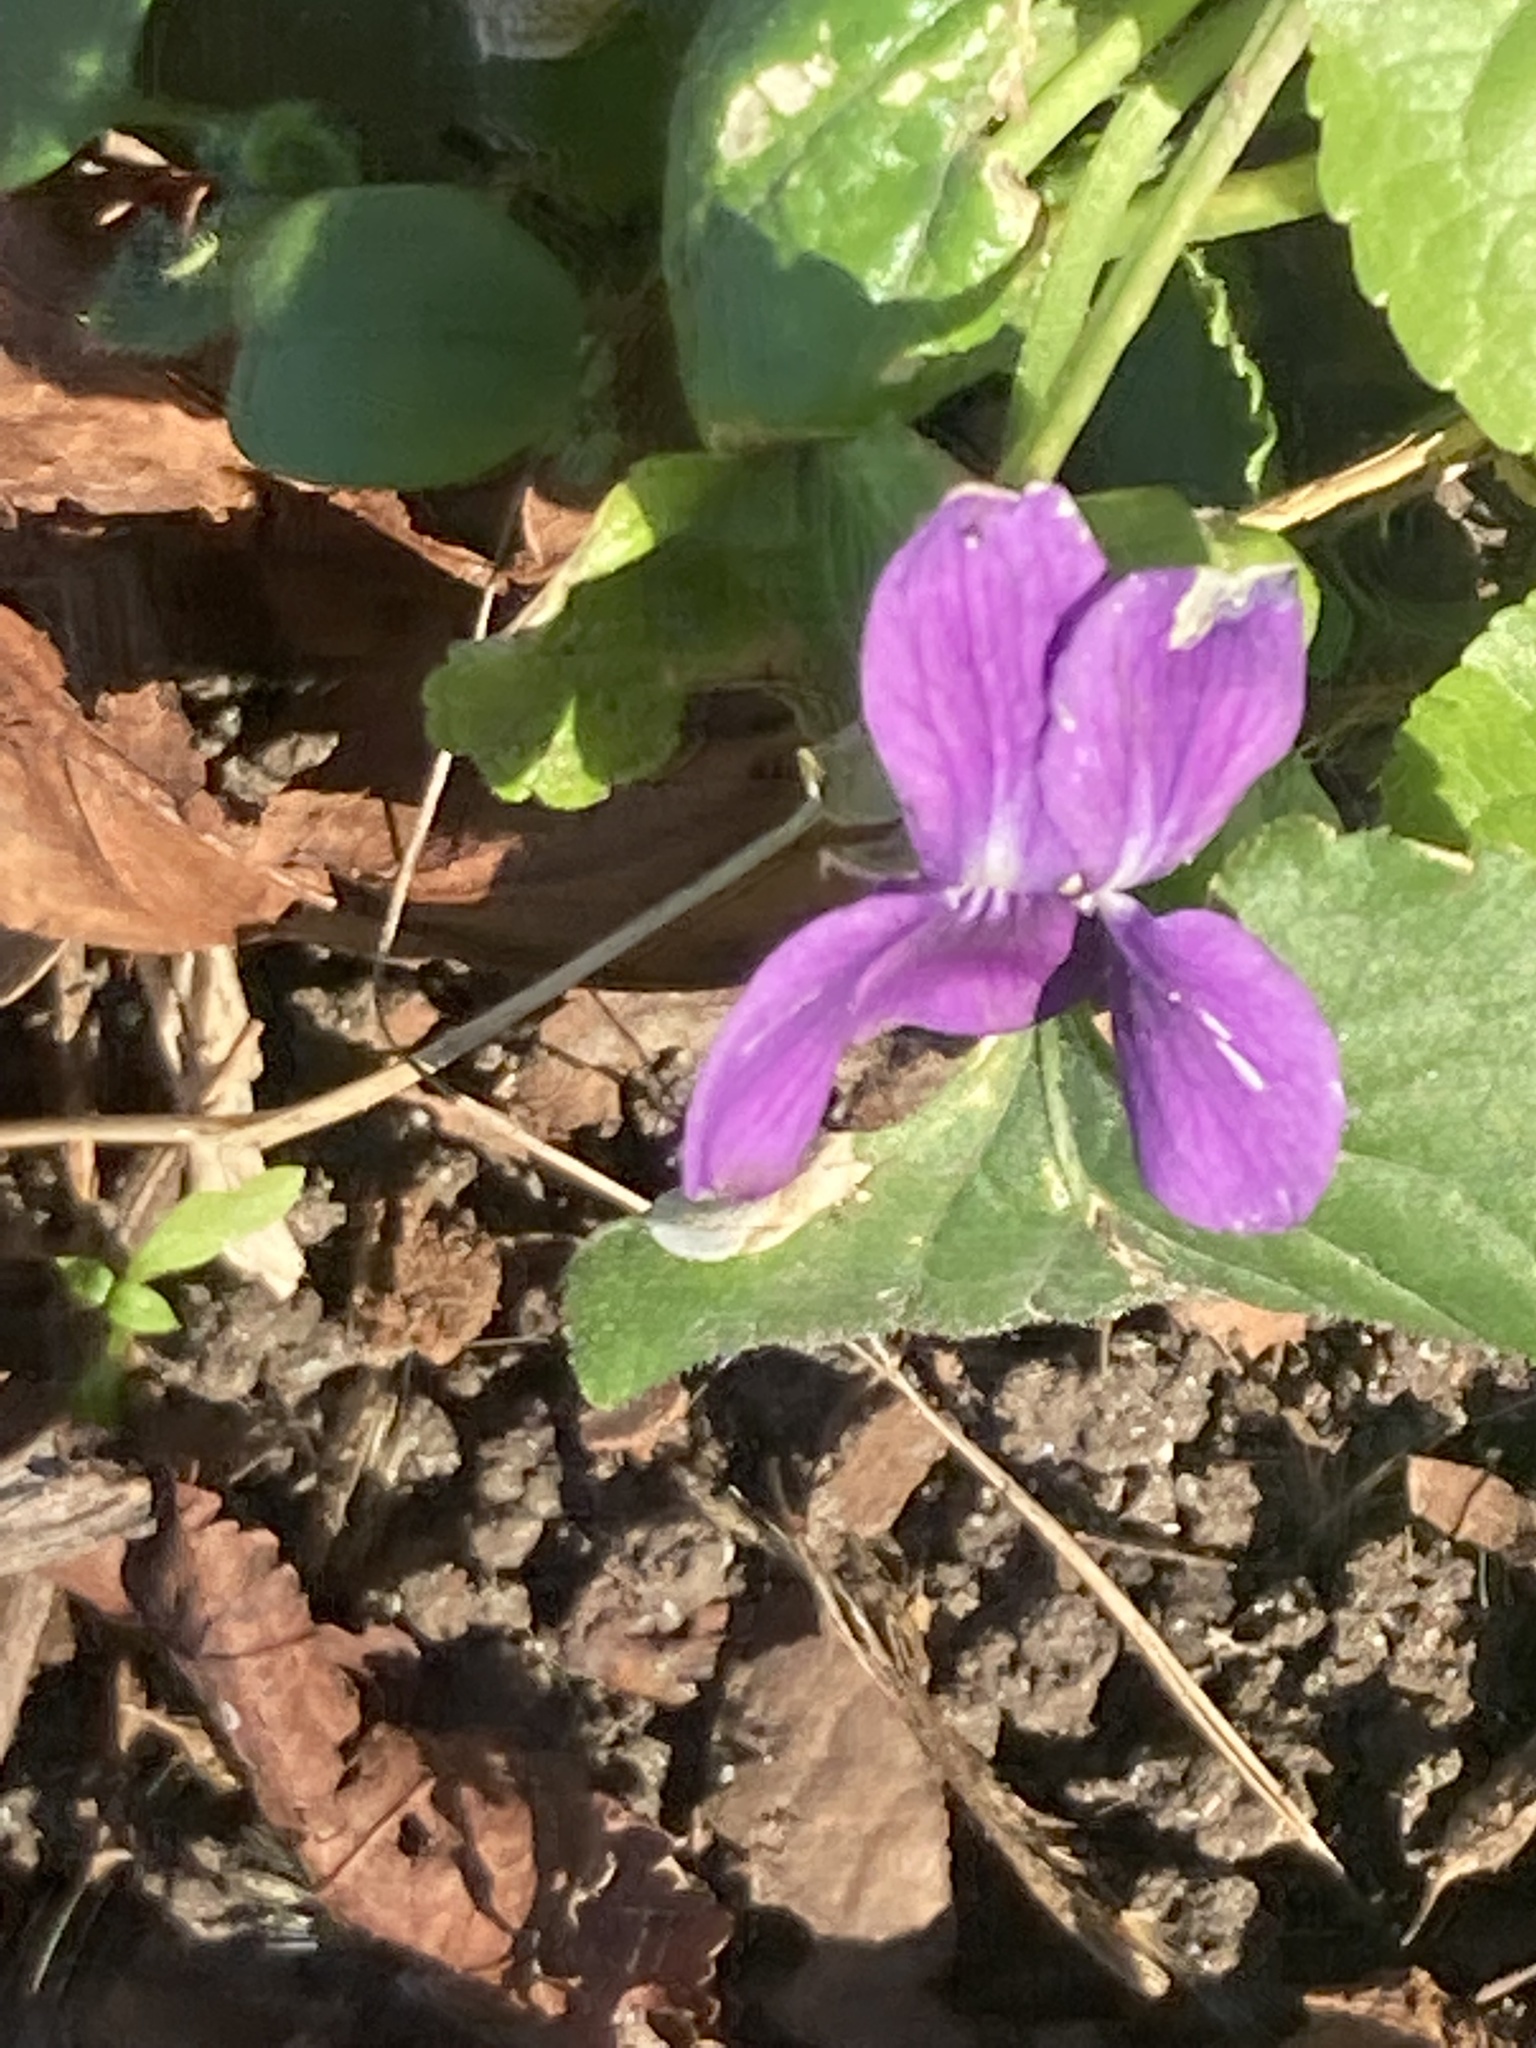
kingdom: Plantae
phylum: Tracheophyta
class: Magnoliopsida
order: Malpighiales
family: Violaceae
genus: Viola
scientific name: Viola odorata
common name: Sweet violet
